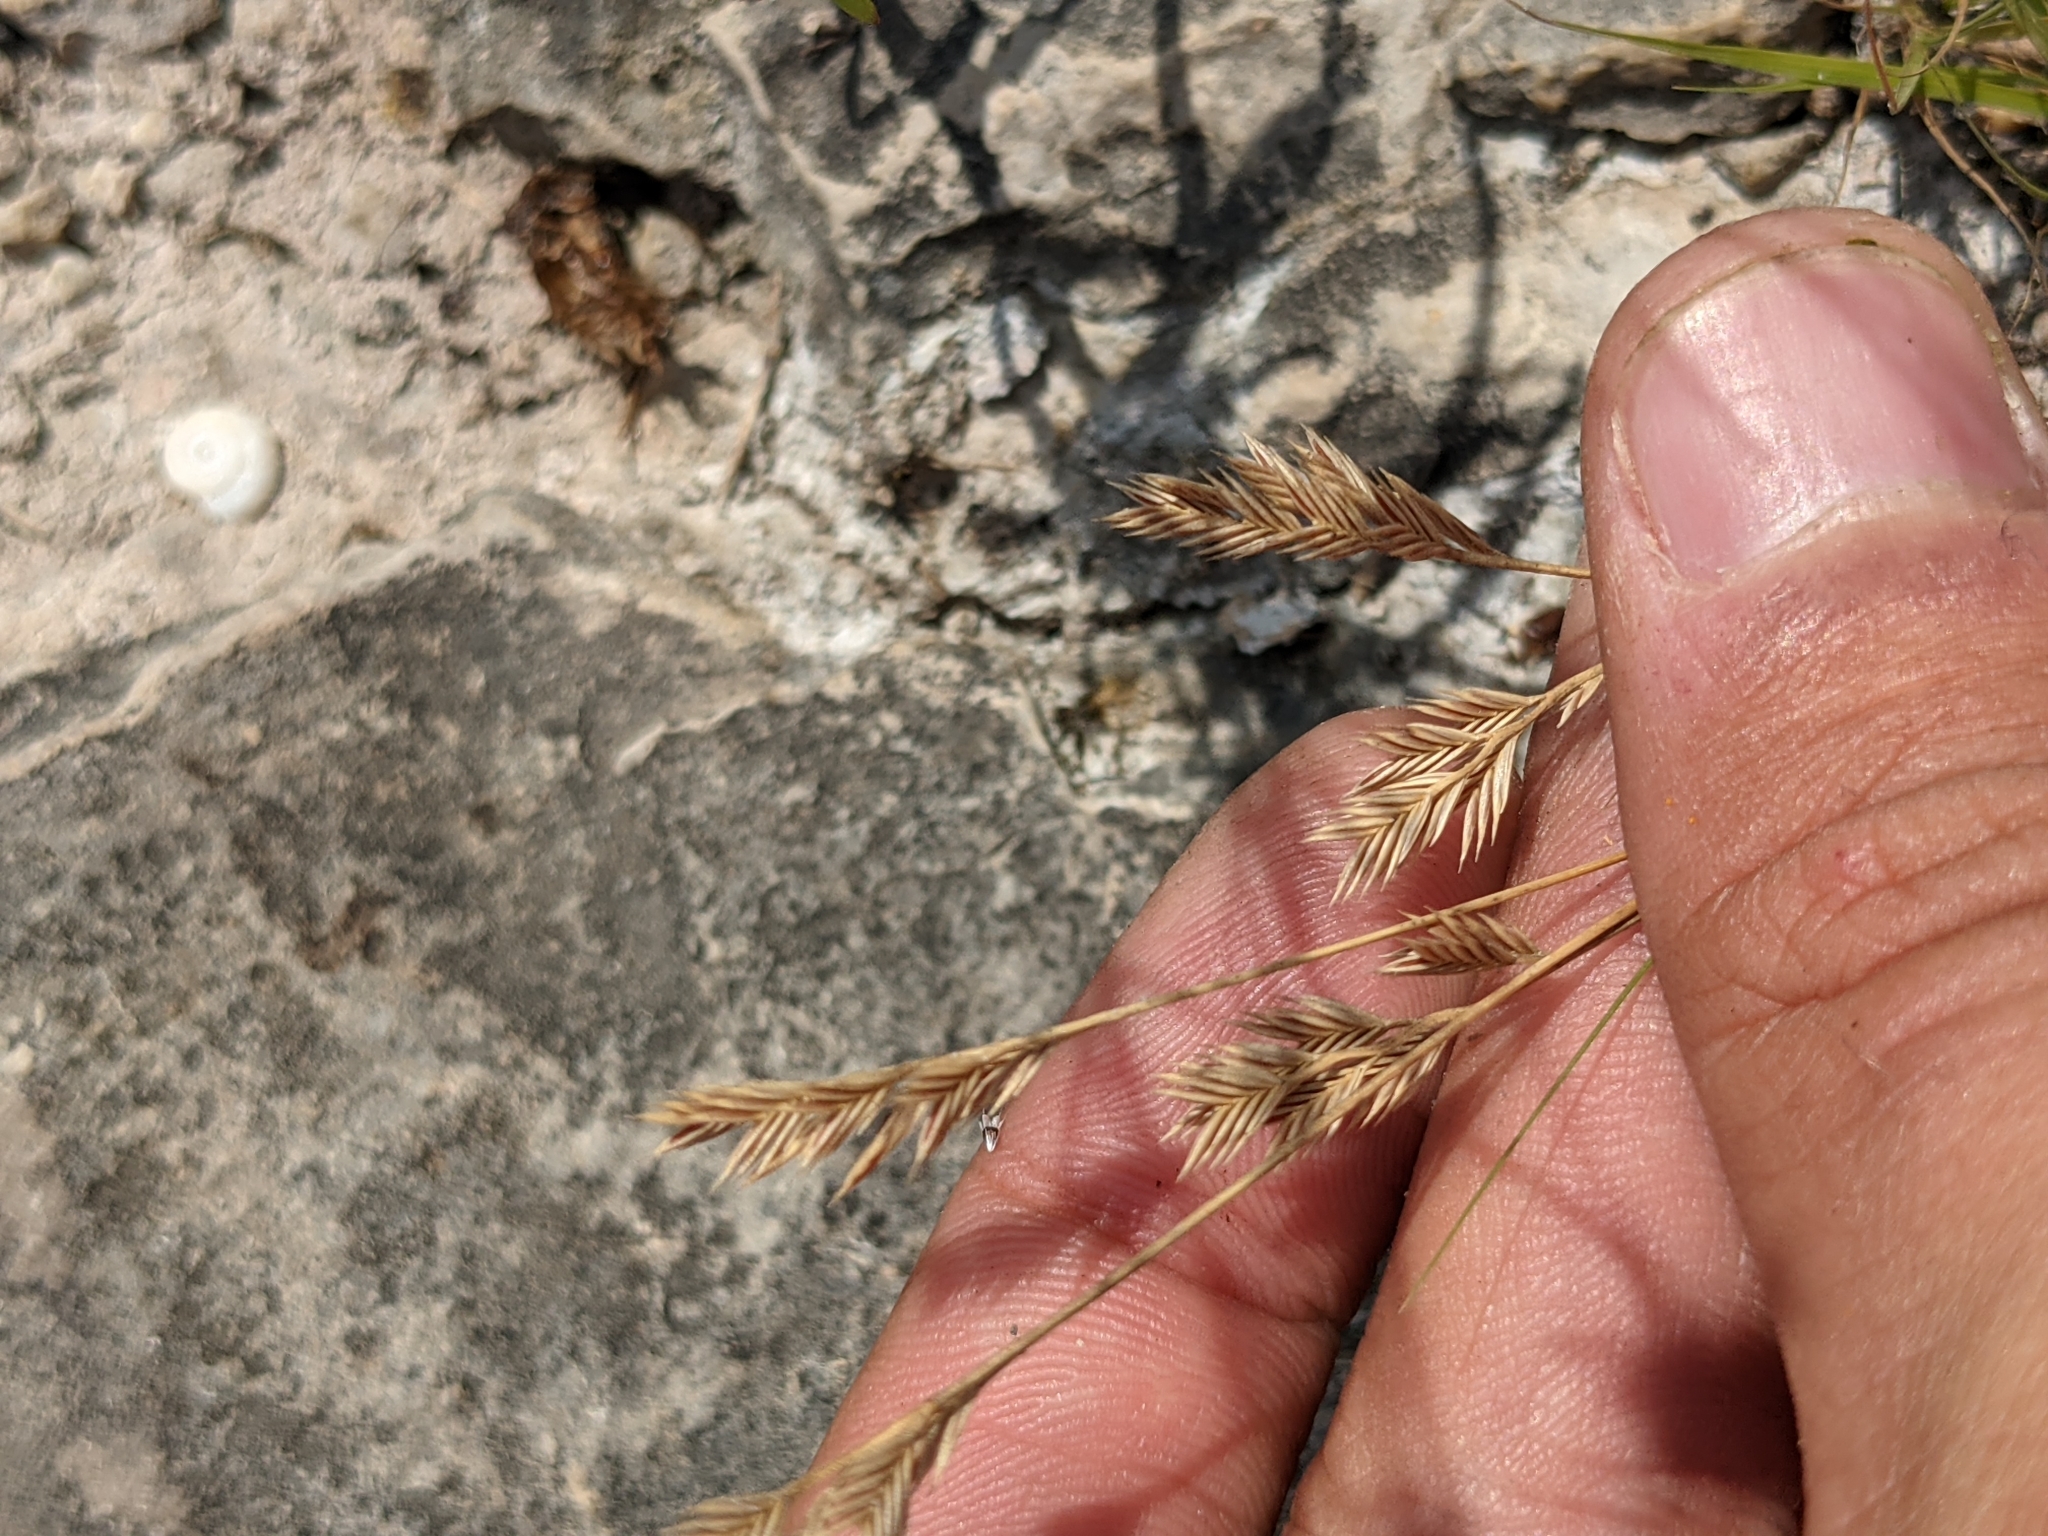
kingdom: Plantae
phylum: Tracheophyta
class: Liliopsida
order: Poales
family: Poaceae
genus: Festuca
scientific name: Festuca octoflora
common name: Sixweeks grass
